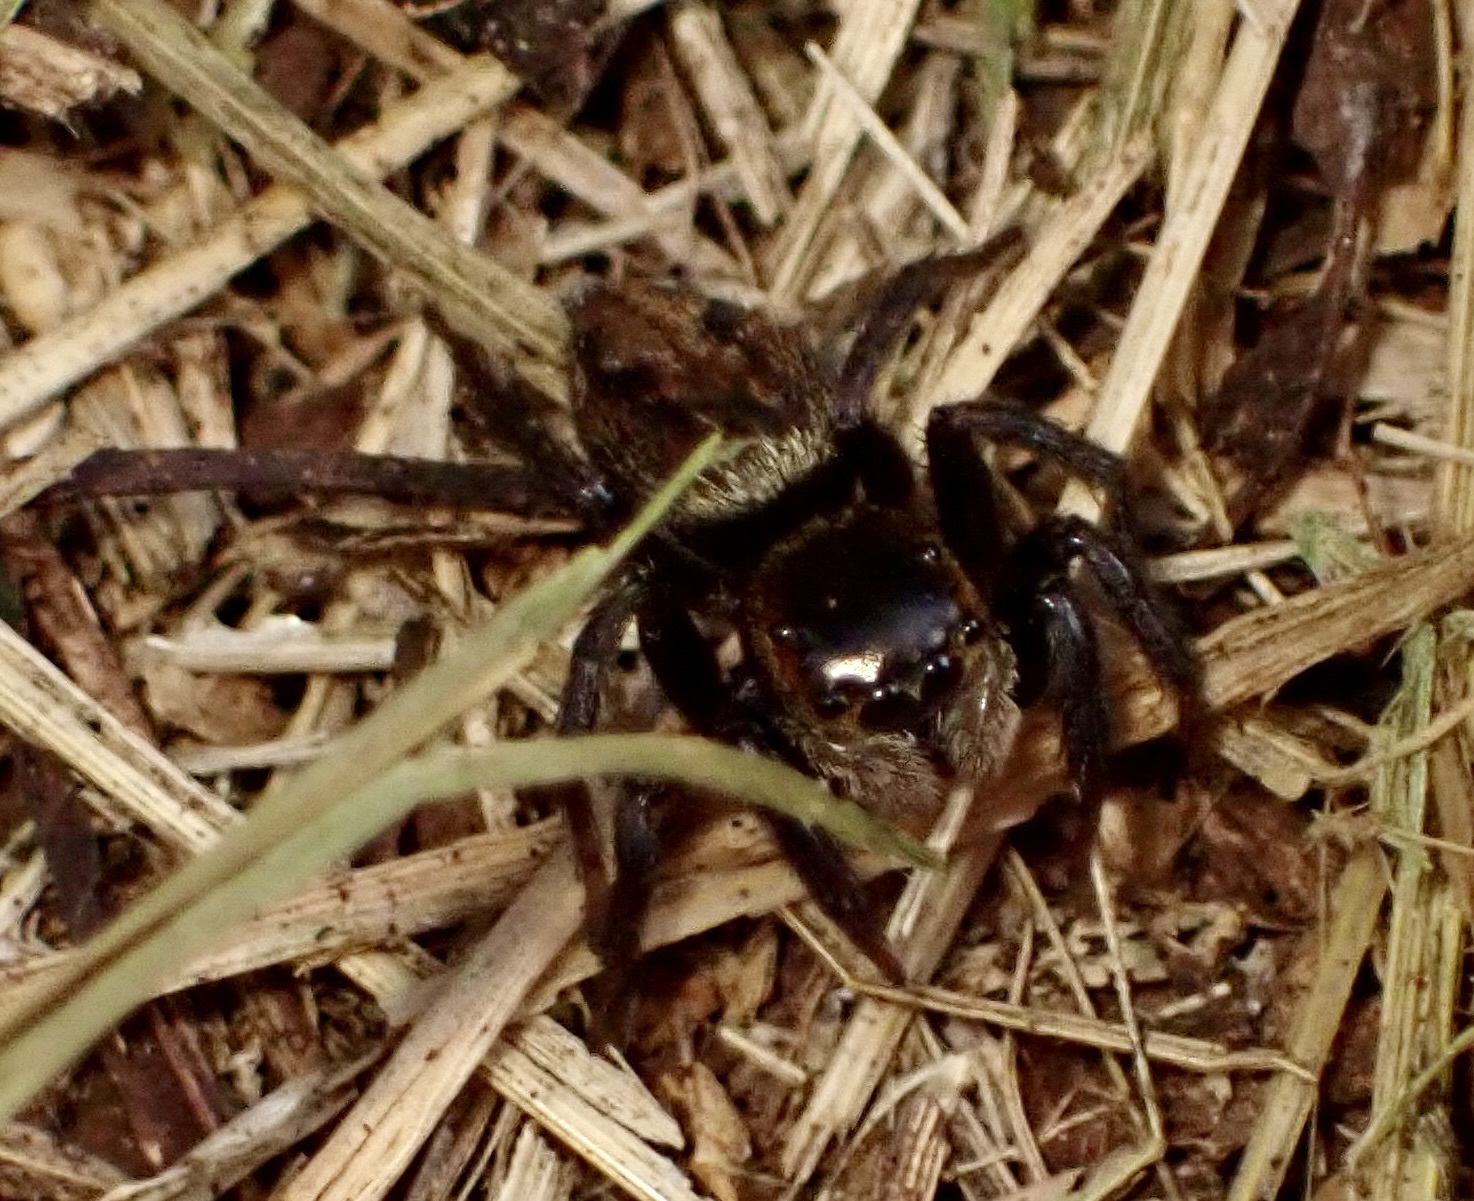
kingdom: Animalia
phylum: Arthropoda
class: Arachnida
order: Araneae
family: Salticidae
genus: Hasarius
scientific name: Hasarius adansoni
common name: Jumping spider
